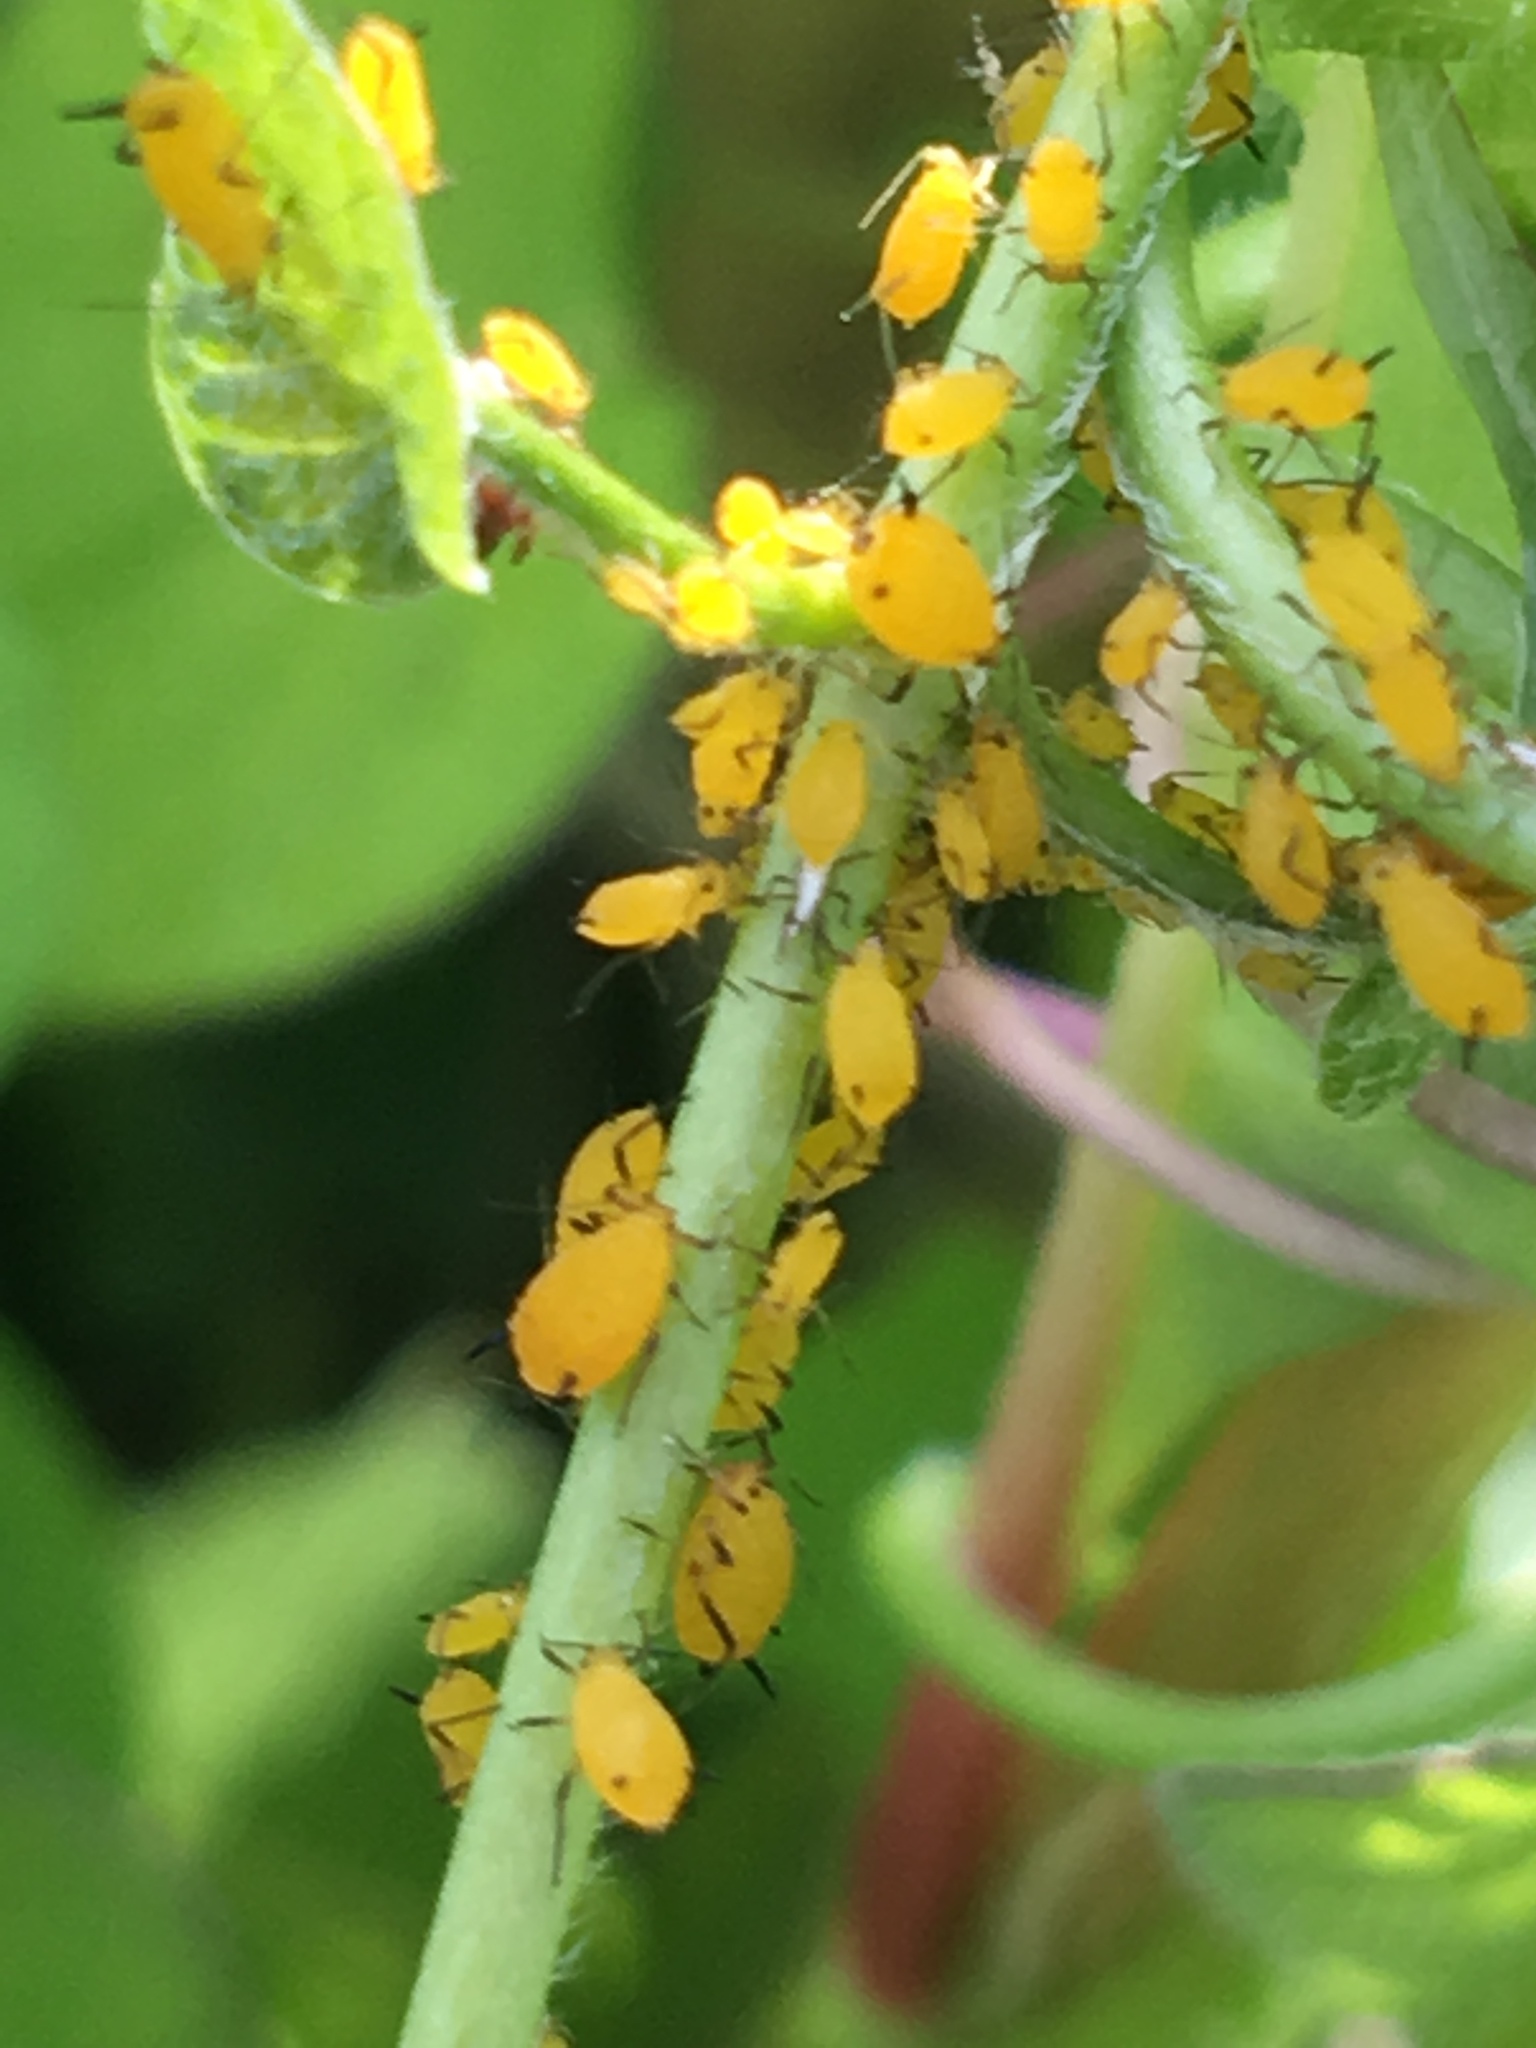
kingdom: Animalia
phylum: Arthropoda
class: Insecta
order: Hemiptera
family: Aphididae
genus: Aphis
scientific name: Aphis nerii
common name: Oleander aphid
